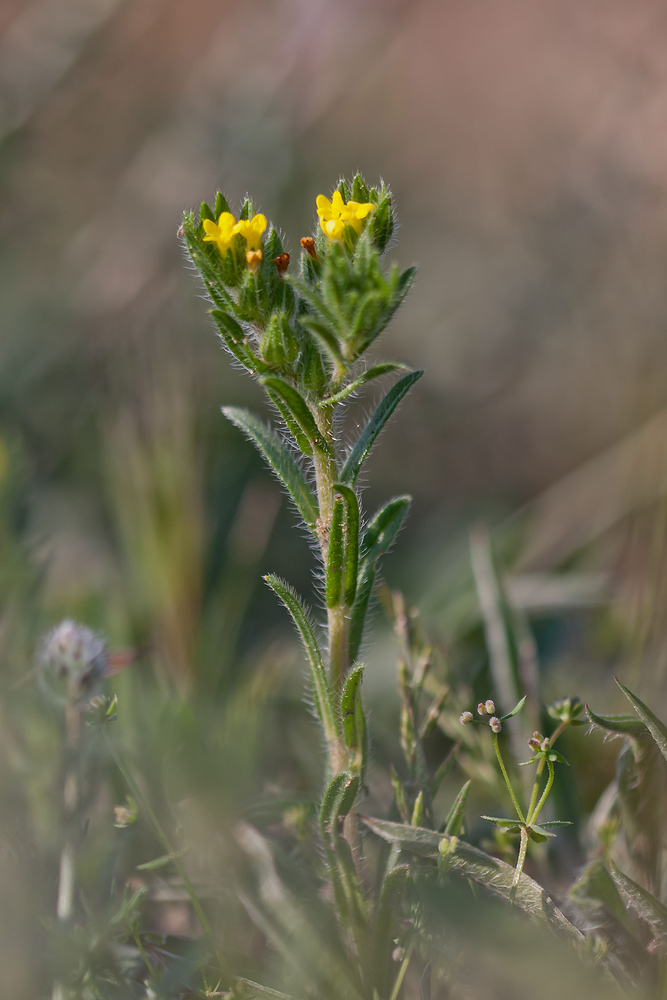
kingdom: Plantae
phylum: Tracheophyta
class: Magnoliopsida
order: Boraginales
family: Boraginaceae
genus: Neatostema
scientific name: Neatostema apulum
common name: Hairy sheepweed
